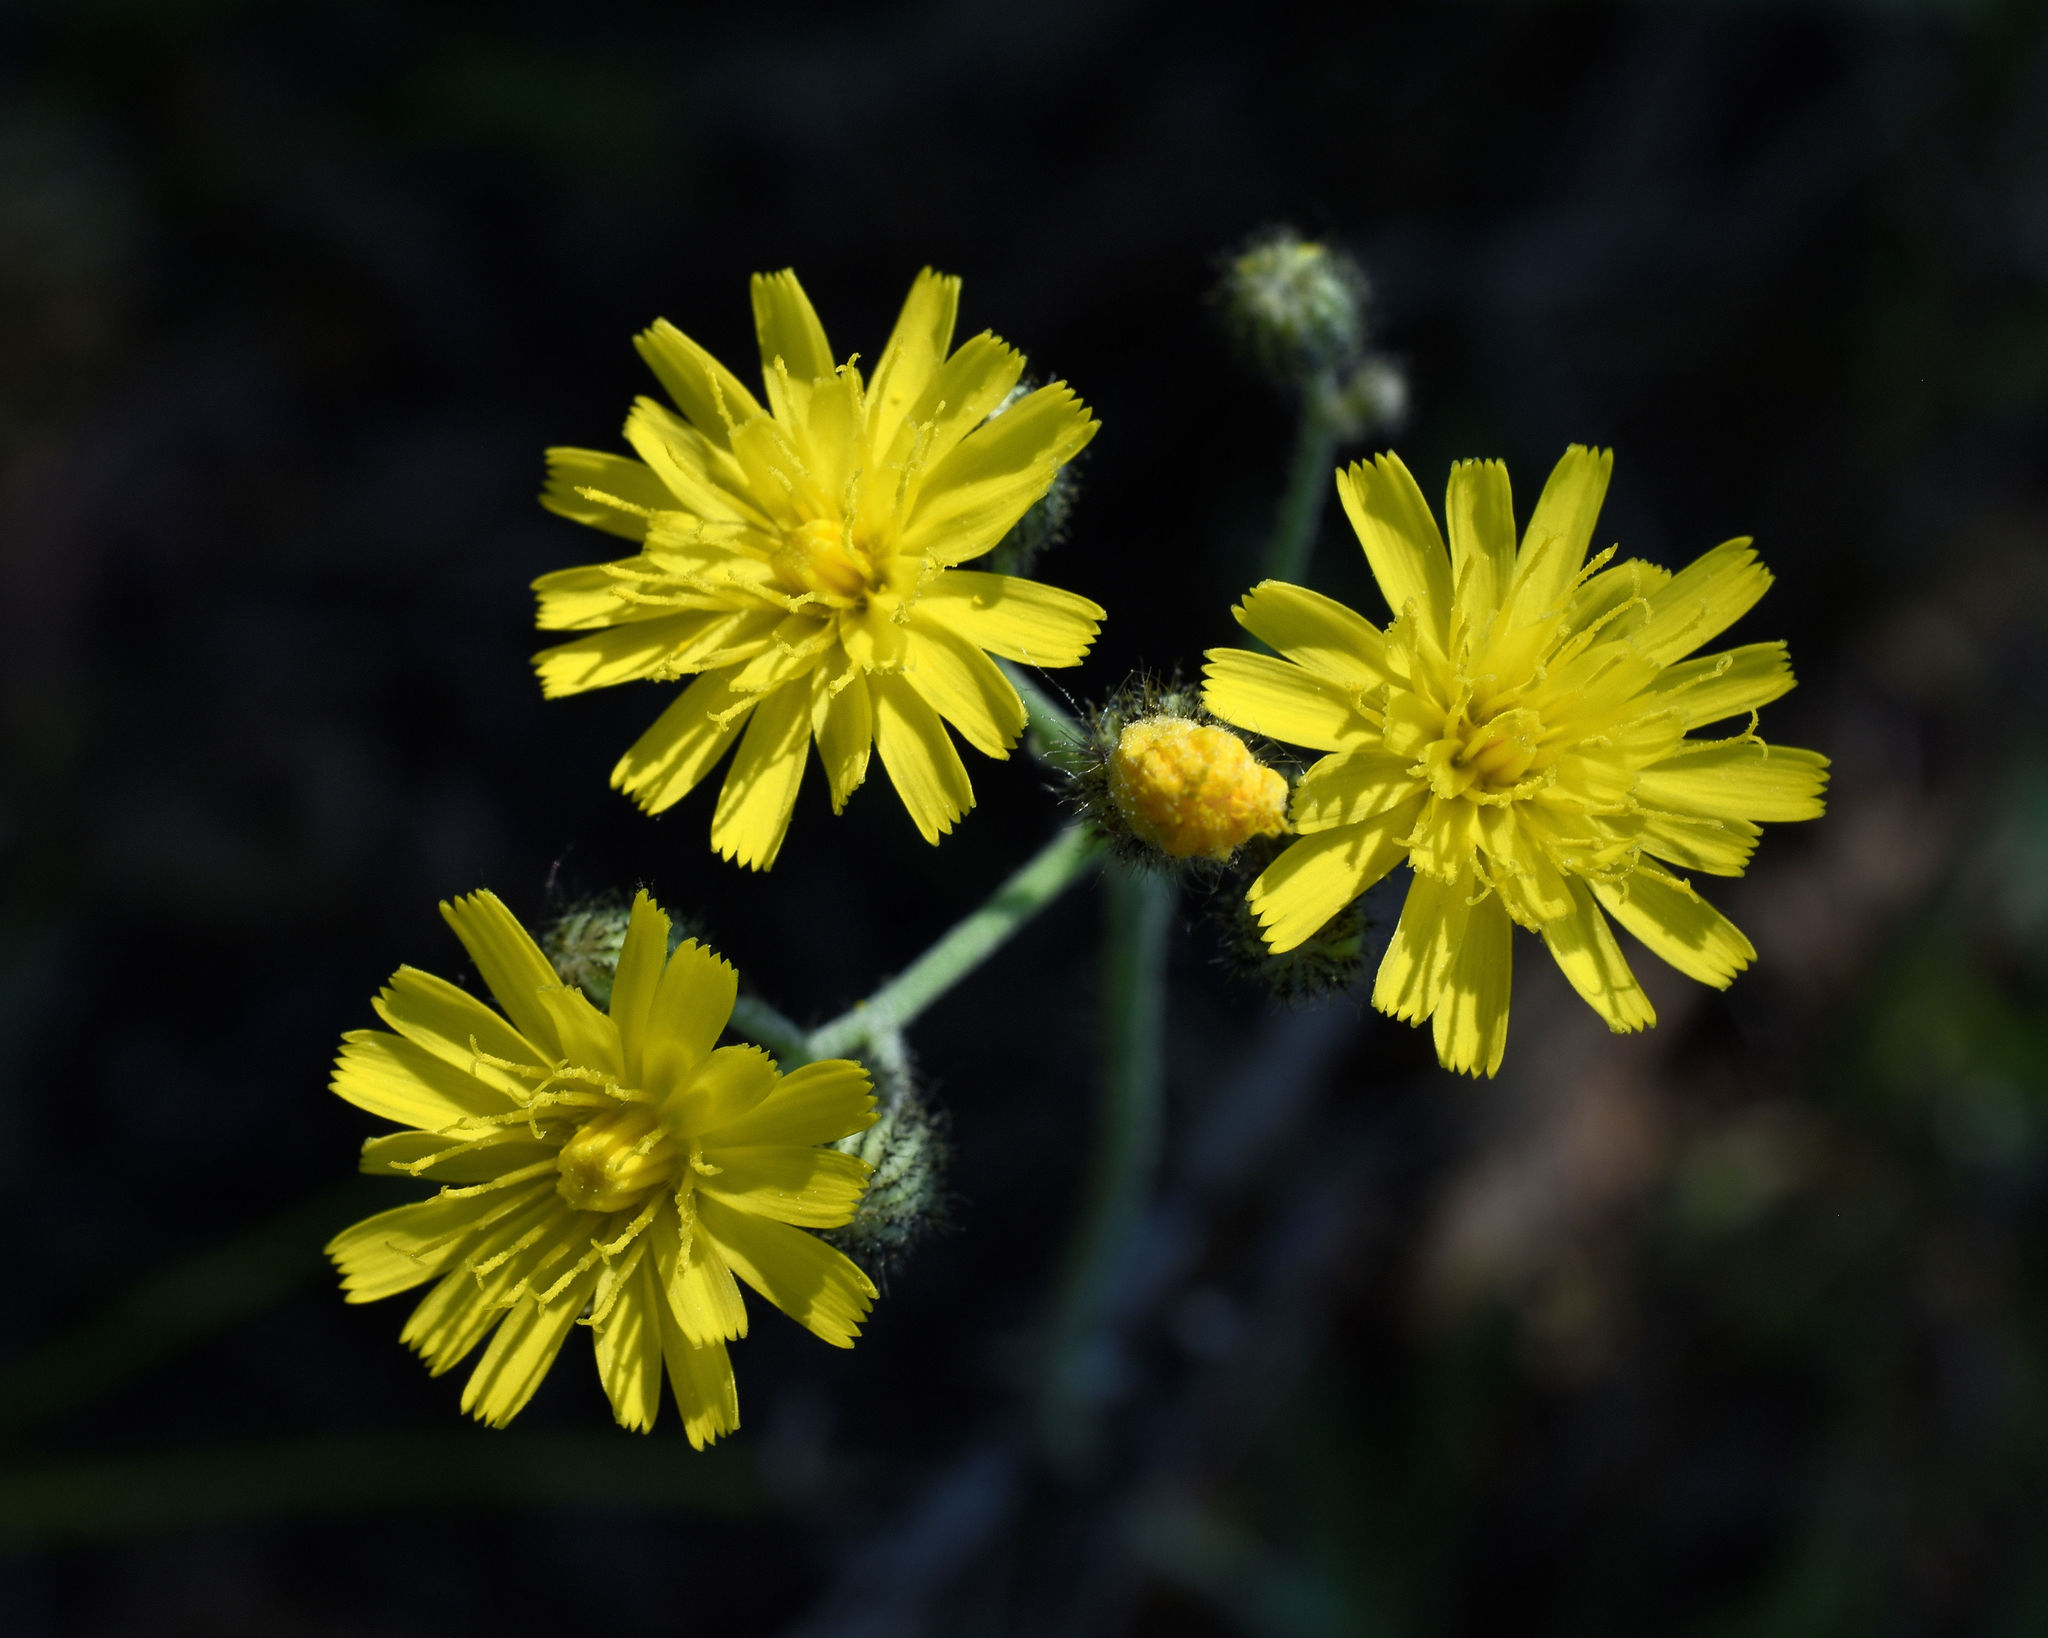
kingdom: Plantae
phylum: Tracheophyta
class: Magnoliopsida
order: Asterales
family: Asteraceae
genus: Pilosella
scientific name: Pilosella piloselloides
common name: Glaucous king-devil
